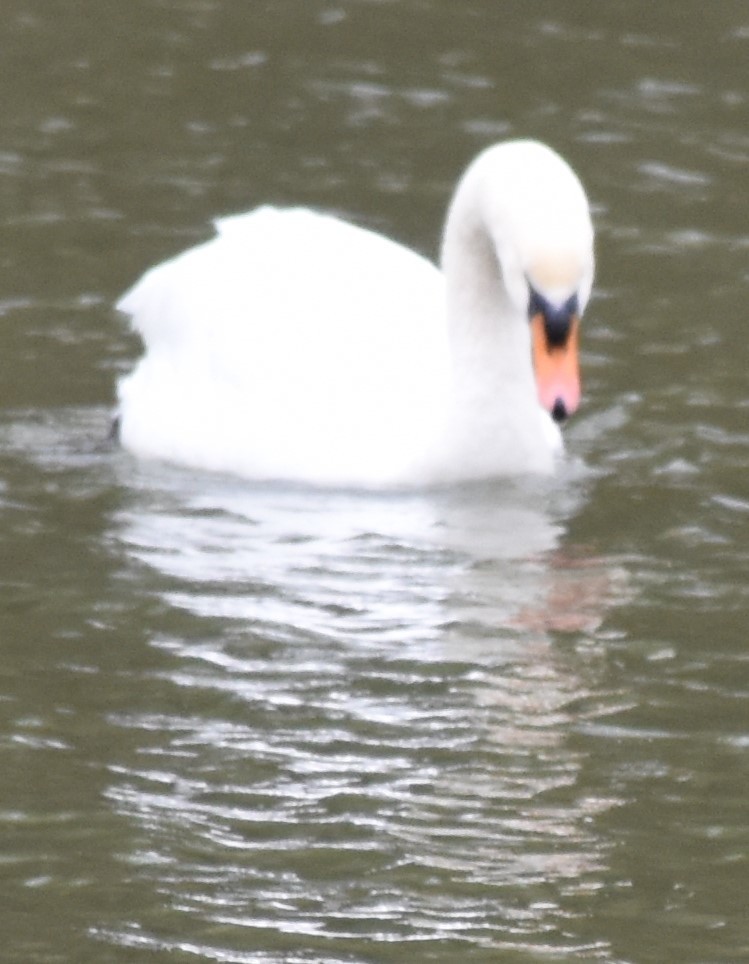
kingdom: Animalia
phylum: Chordata
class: Aves
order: Anseriformes
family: Anatidae
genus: Cygnus
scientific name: Cygnus olor
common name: Mute swan
